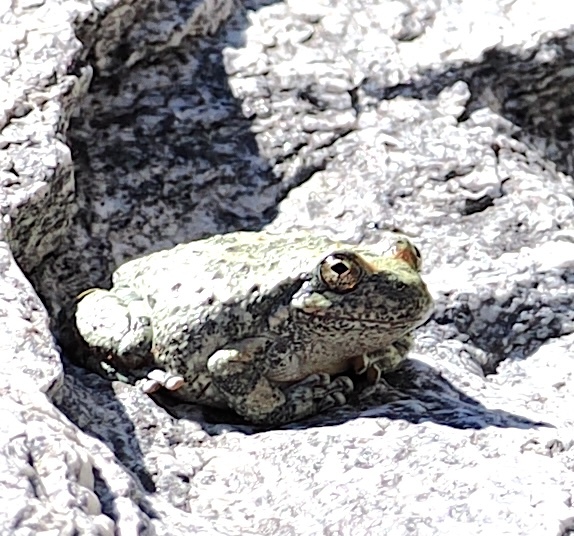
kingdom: Animalia
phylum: Chordata
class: Amphibia
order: Anura
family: Hylidae
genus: Pseudacris
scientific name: Pseudacris cadaverina
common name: California chorus frog
